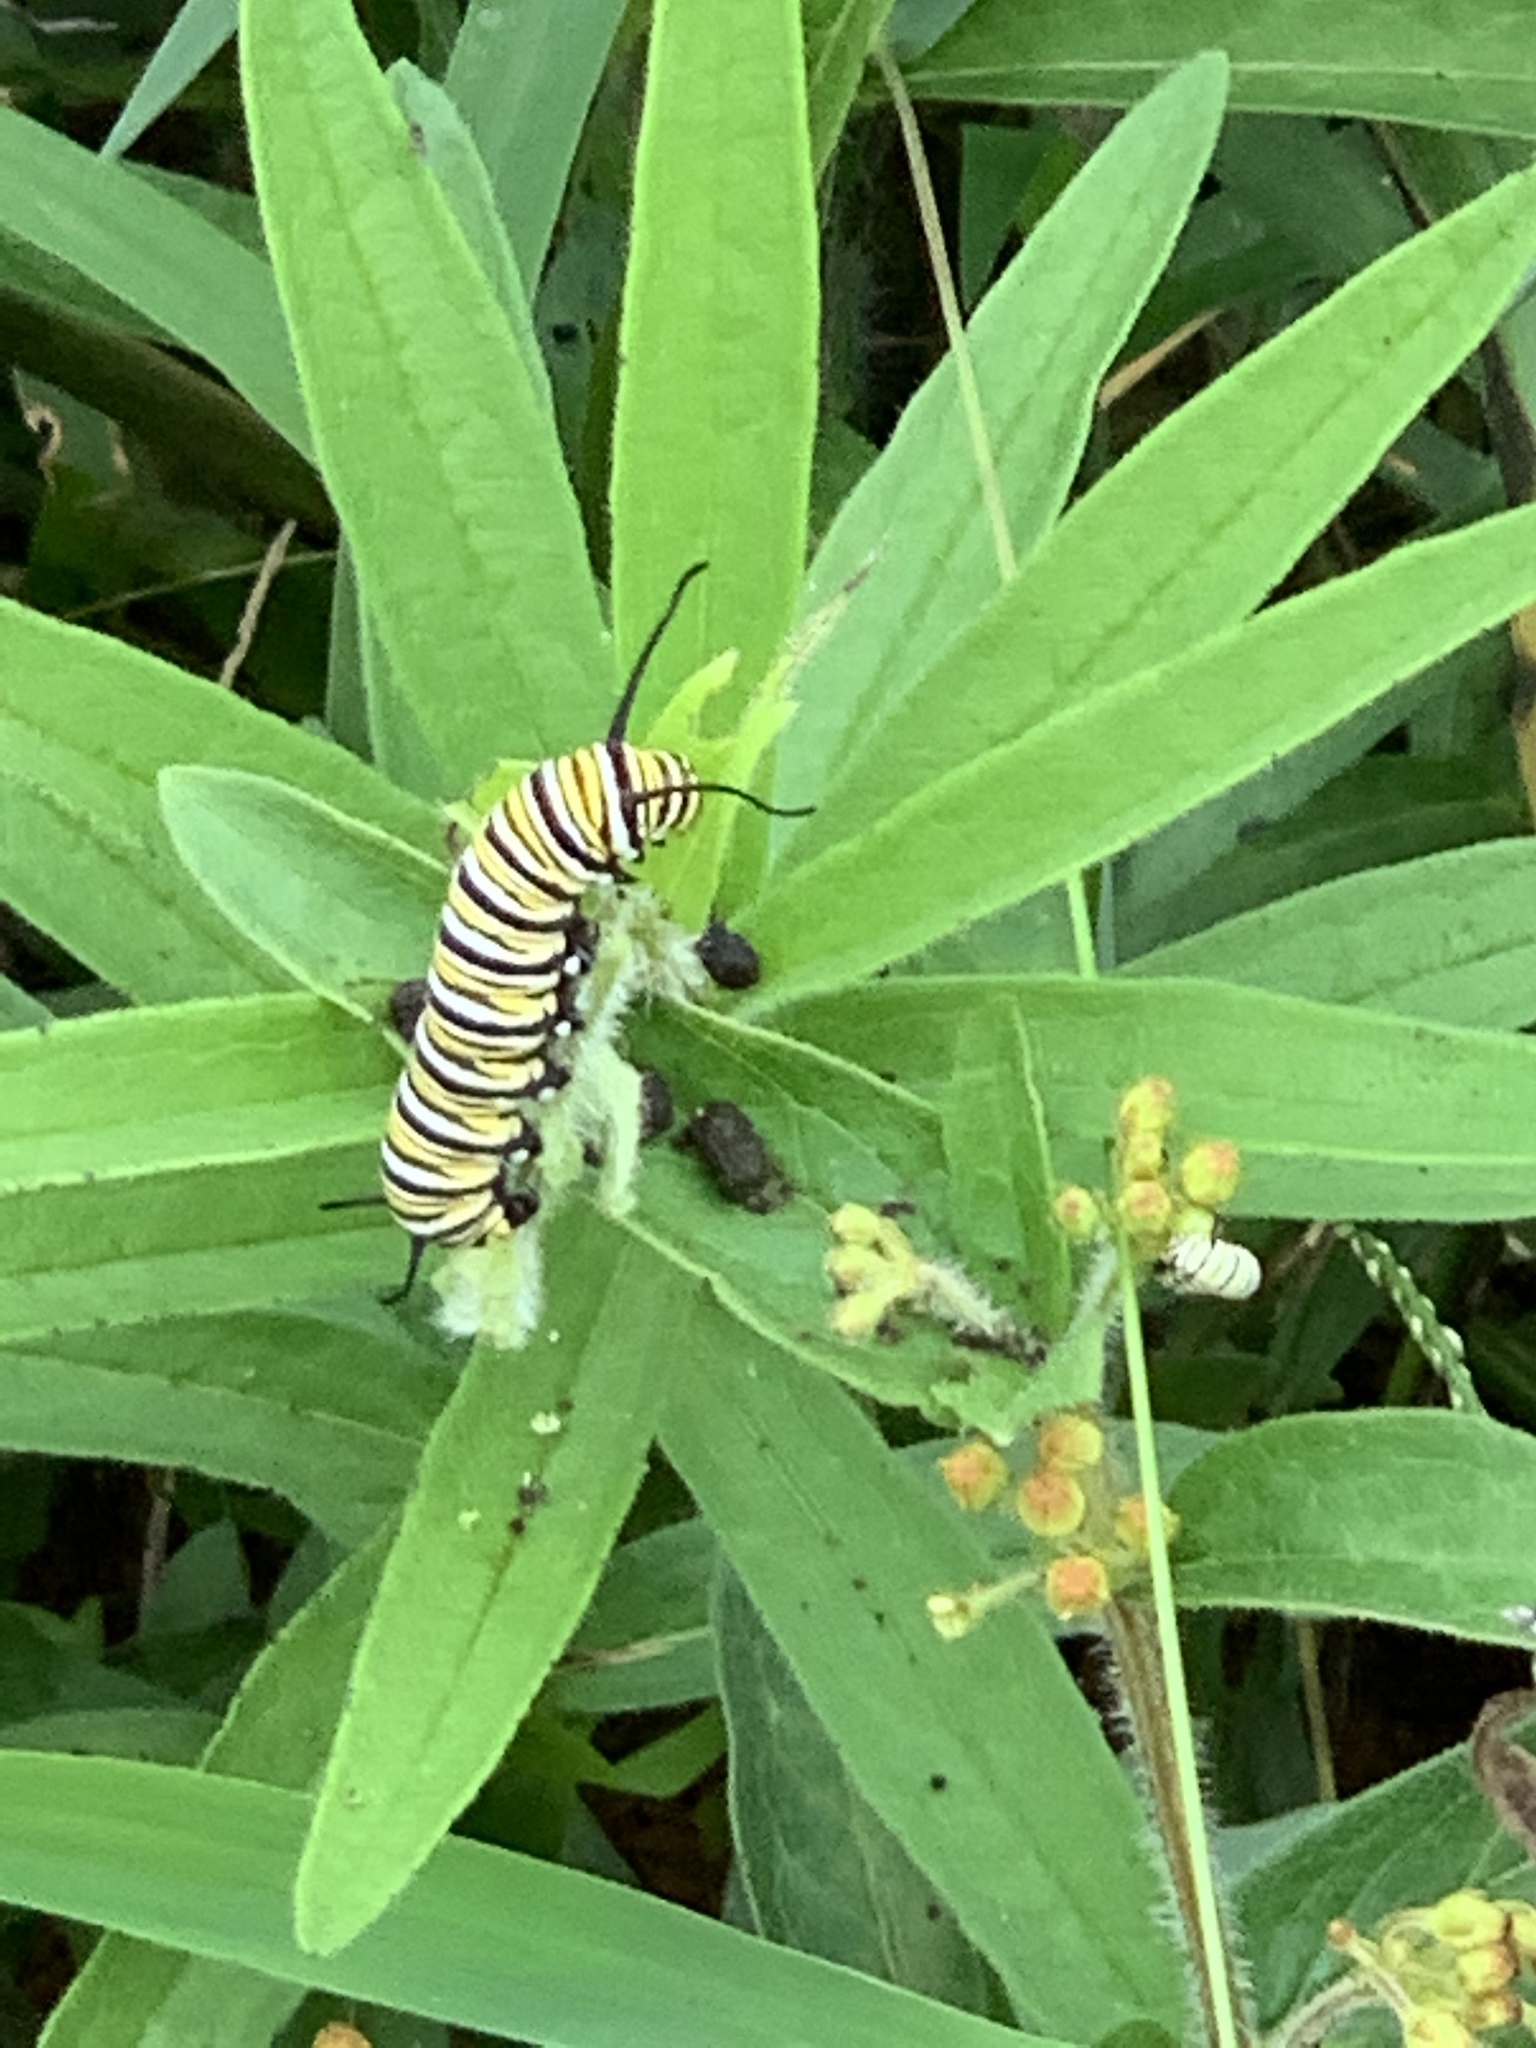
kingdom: Animalia
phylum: Arthropoda
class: Insecta
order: Lepidoptera
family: Nymphalidae
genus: Danaus
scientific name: Danaus plexippus
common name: Monarch
